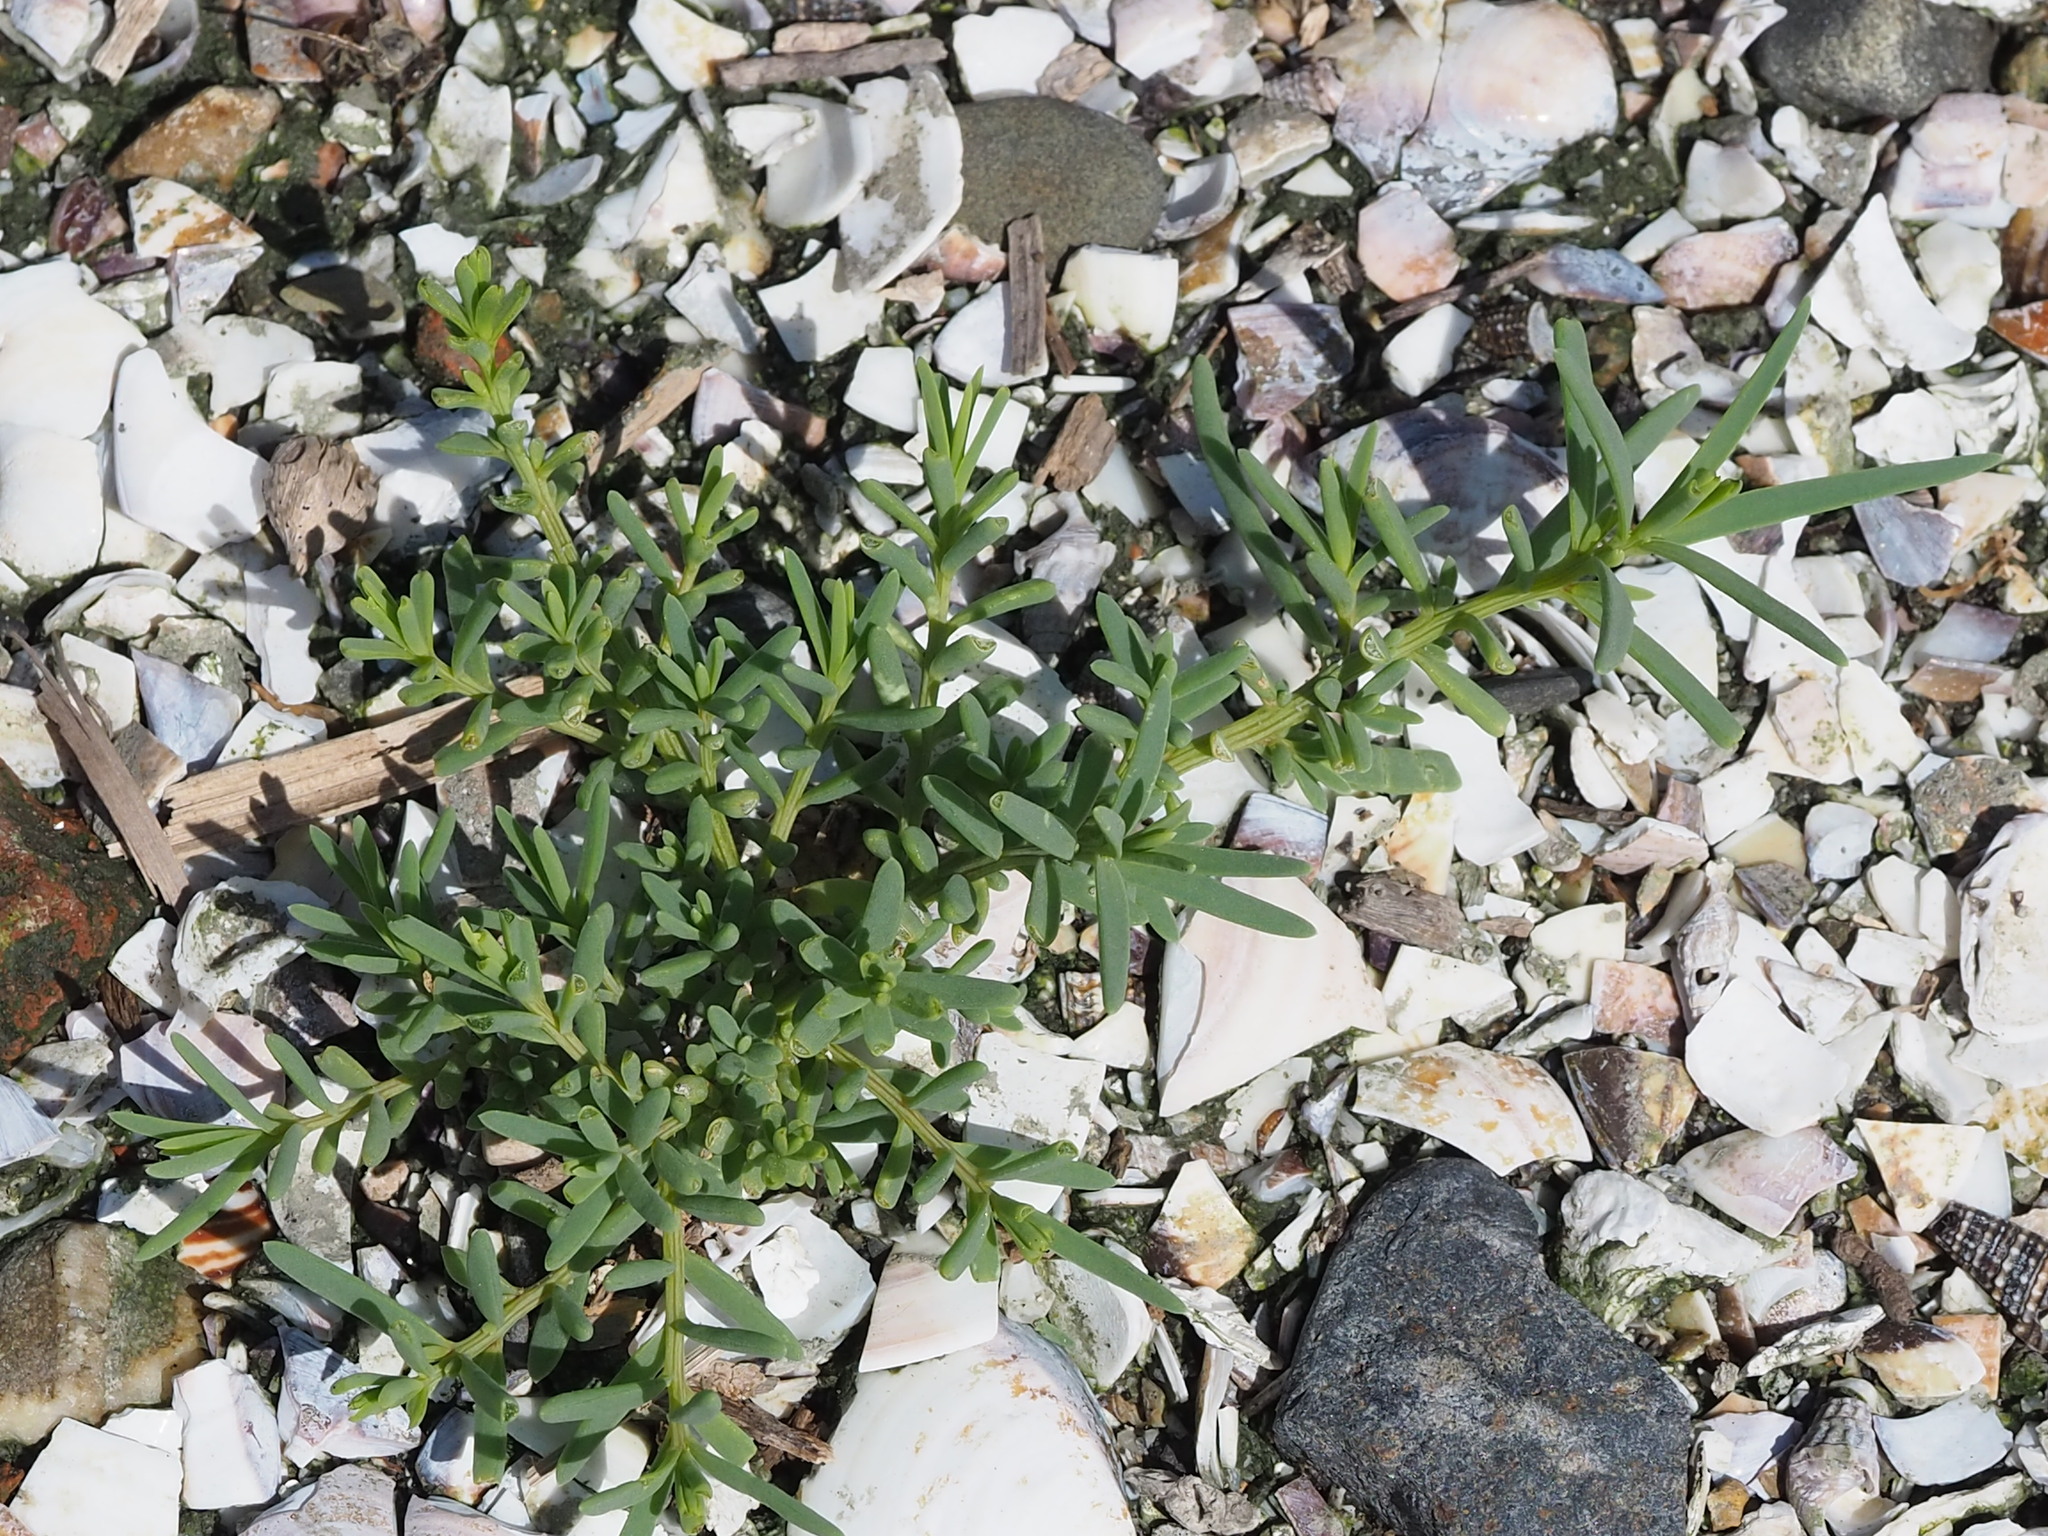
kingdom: Plantae
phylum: Tracheophyta
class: Magnoliopsida
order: Caryophyllales
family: Amaranthaceae
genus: Suaeda
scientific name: Suaeda maritima
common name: Annual sea-blite
